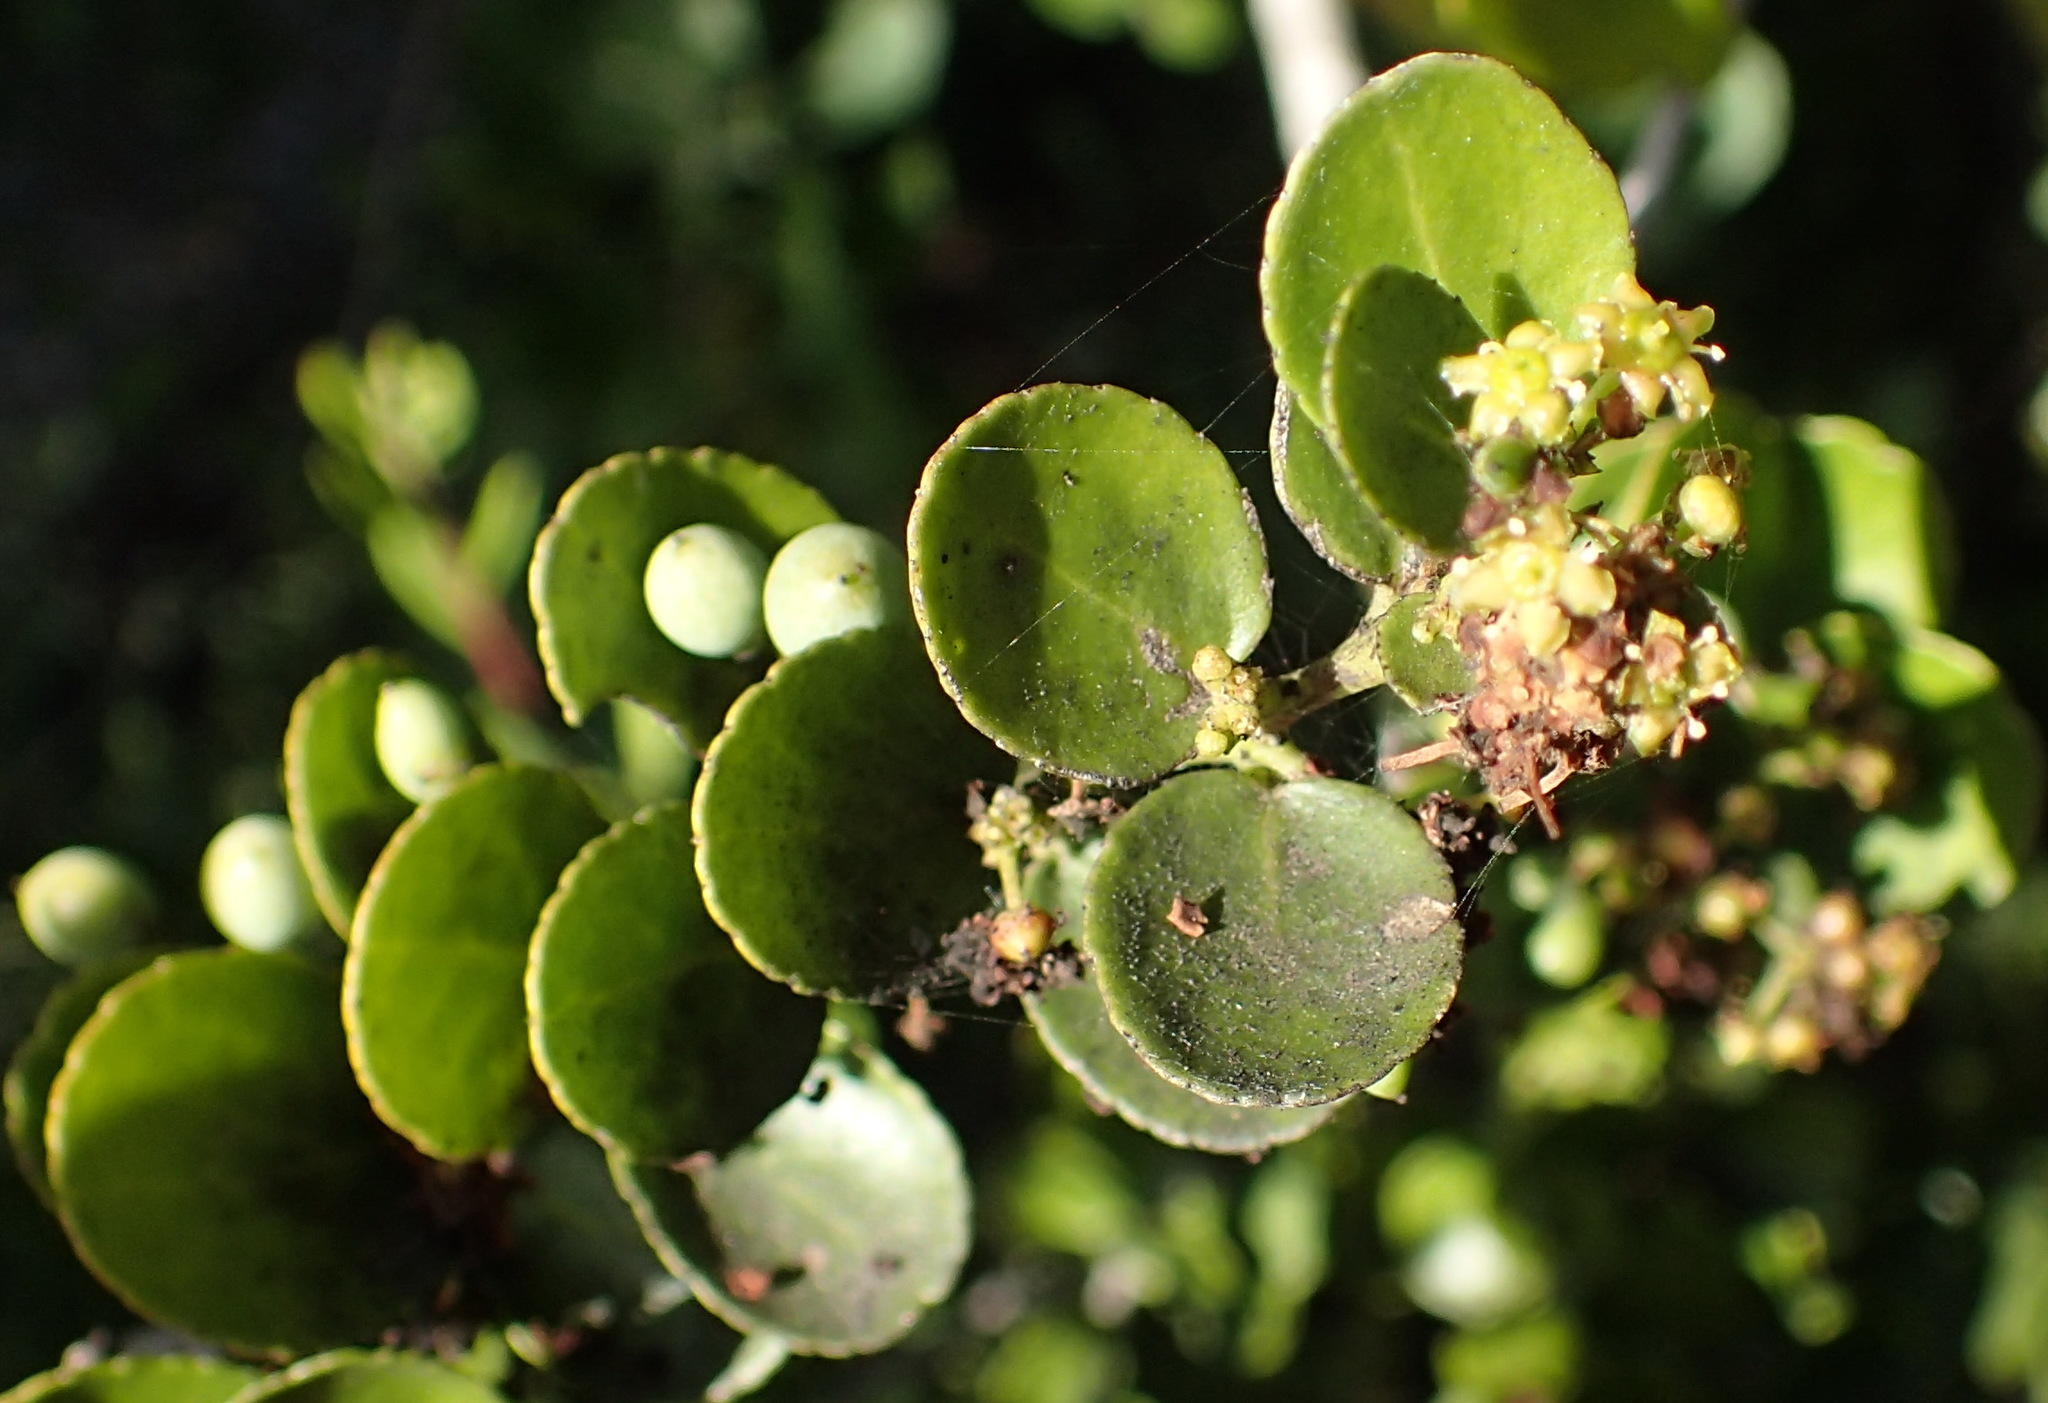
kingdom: Plantae
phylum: Tracheophyta
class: Magnoliopsida
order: Celastrales
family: Celastraceae
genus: Mystroxylon
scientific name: Mystroxylon aethiopicum
